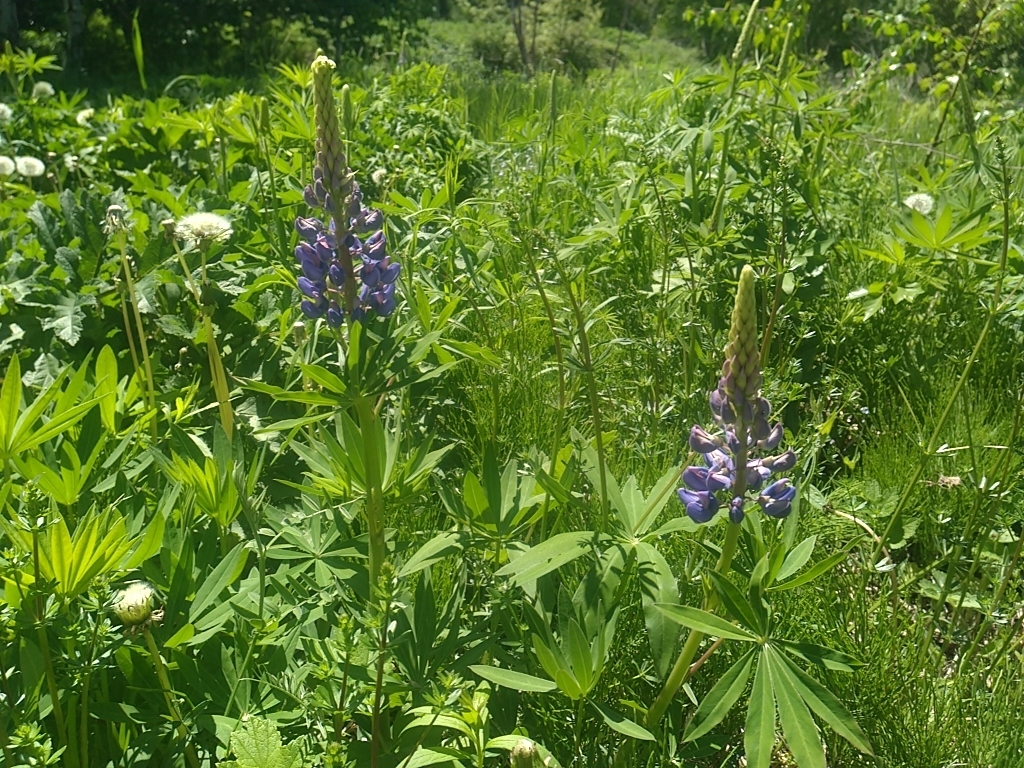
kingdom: Plantae
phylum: Tracheophyta
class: Magnoliopsida
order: Fabales
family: Fabaceae
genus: Lupinus
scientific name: Lupinus polyphyllus
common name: Garden lupin
